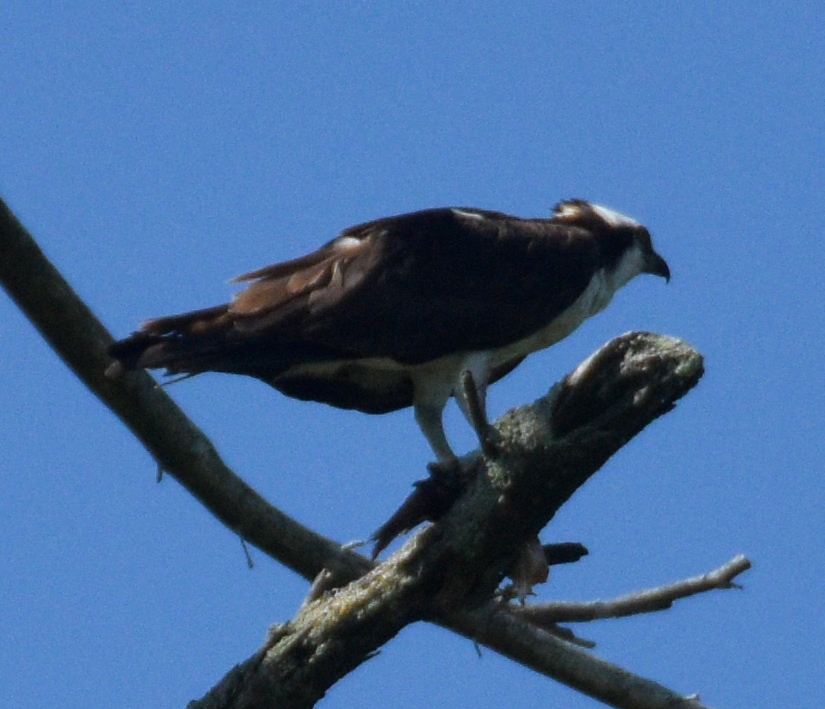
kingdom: Animalia
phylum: Chordata
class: Aves
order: Accipitriformes
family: Pandionidae
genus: Pandion
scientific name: Pandion haliaetus
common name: Osprey
